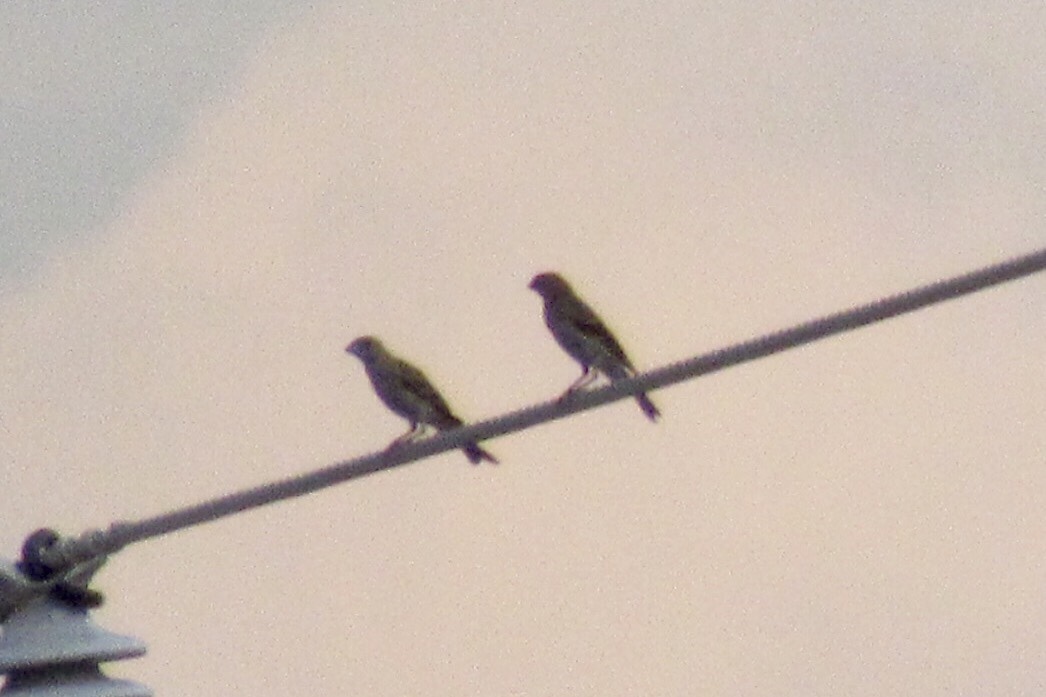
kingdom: Animalia
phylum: Chordata
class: Aves
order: Passeriformes
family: Fringillidae
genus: Haemorhous
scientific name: Haemorhous mexicanus
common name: House finch
